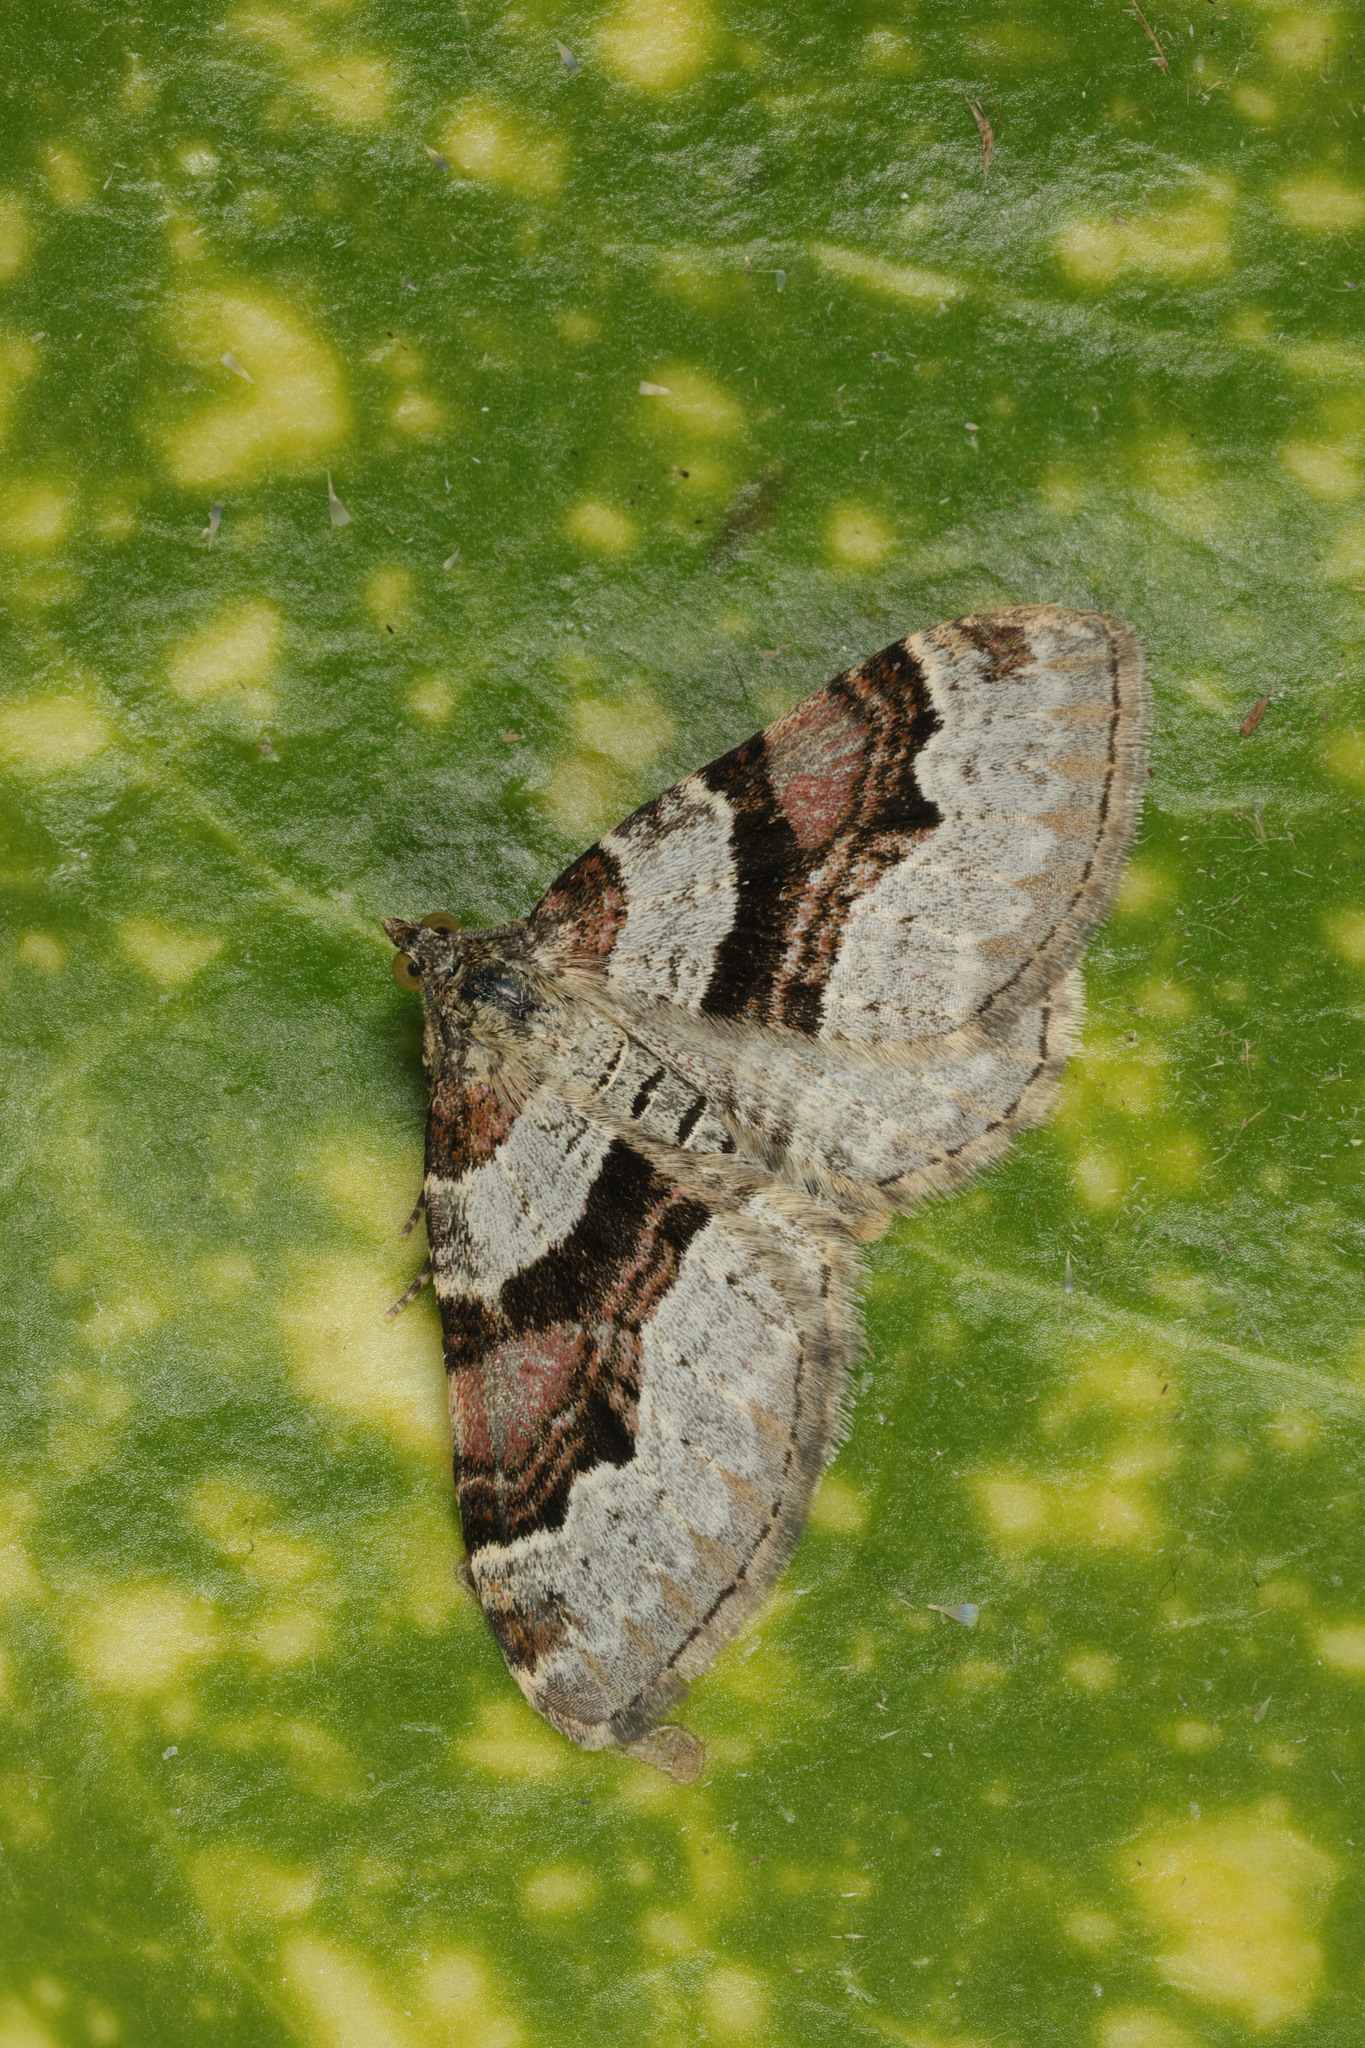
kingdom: Animalia
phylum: Arthropoda
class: Insecta
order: Lepidoptera
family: Geometridae
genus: Xanthorhoe
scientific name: Xanthorhoe designata
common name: Flame carpet
